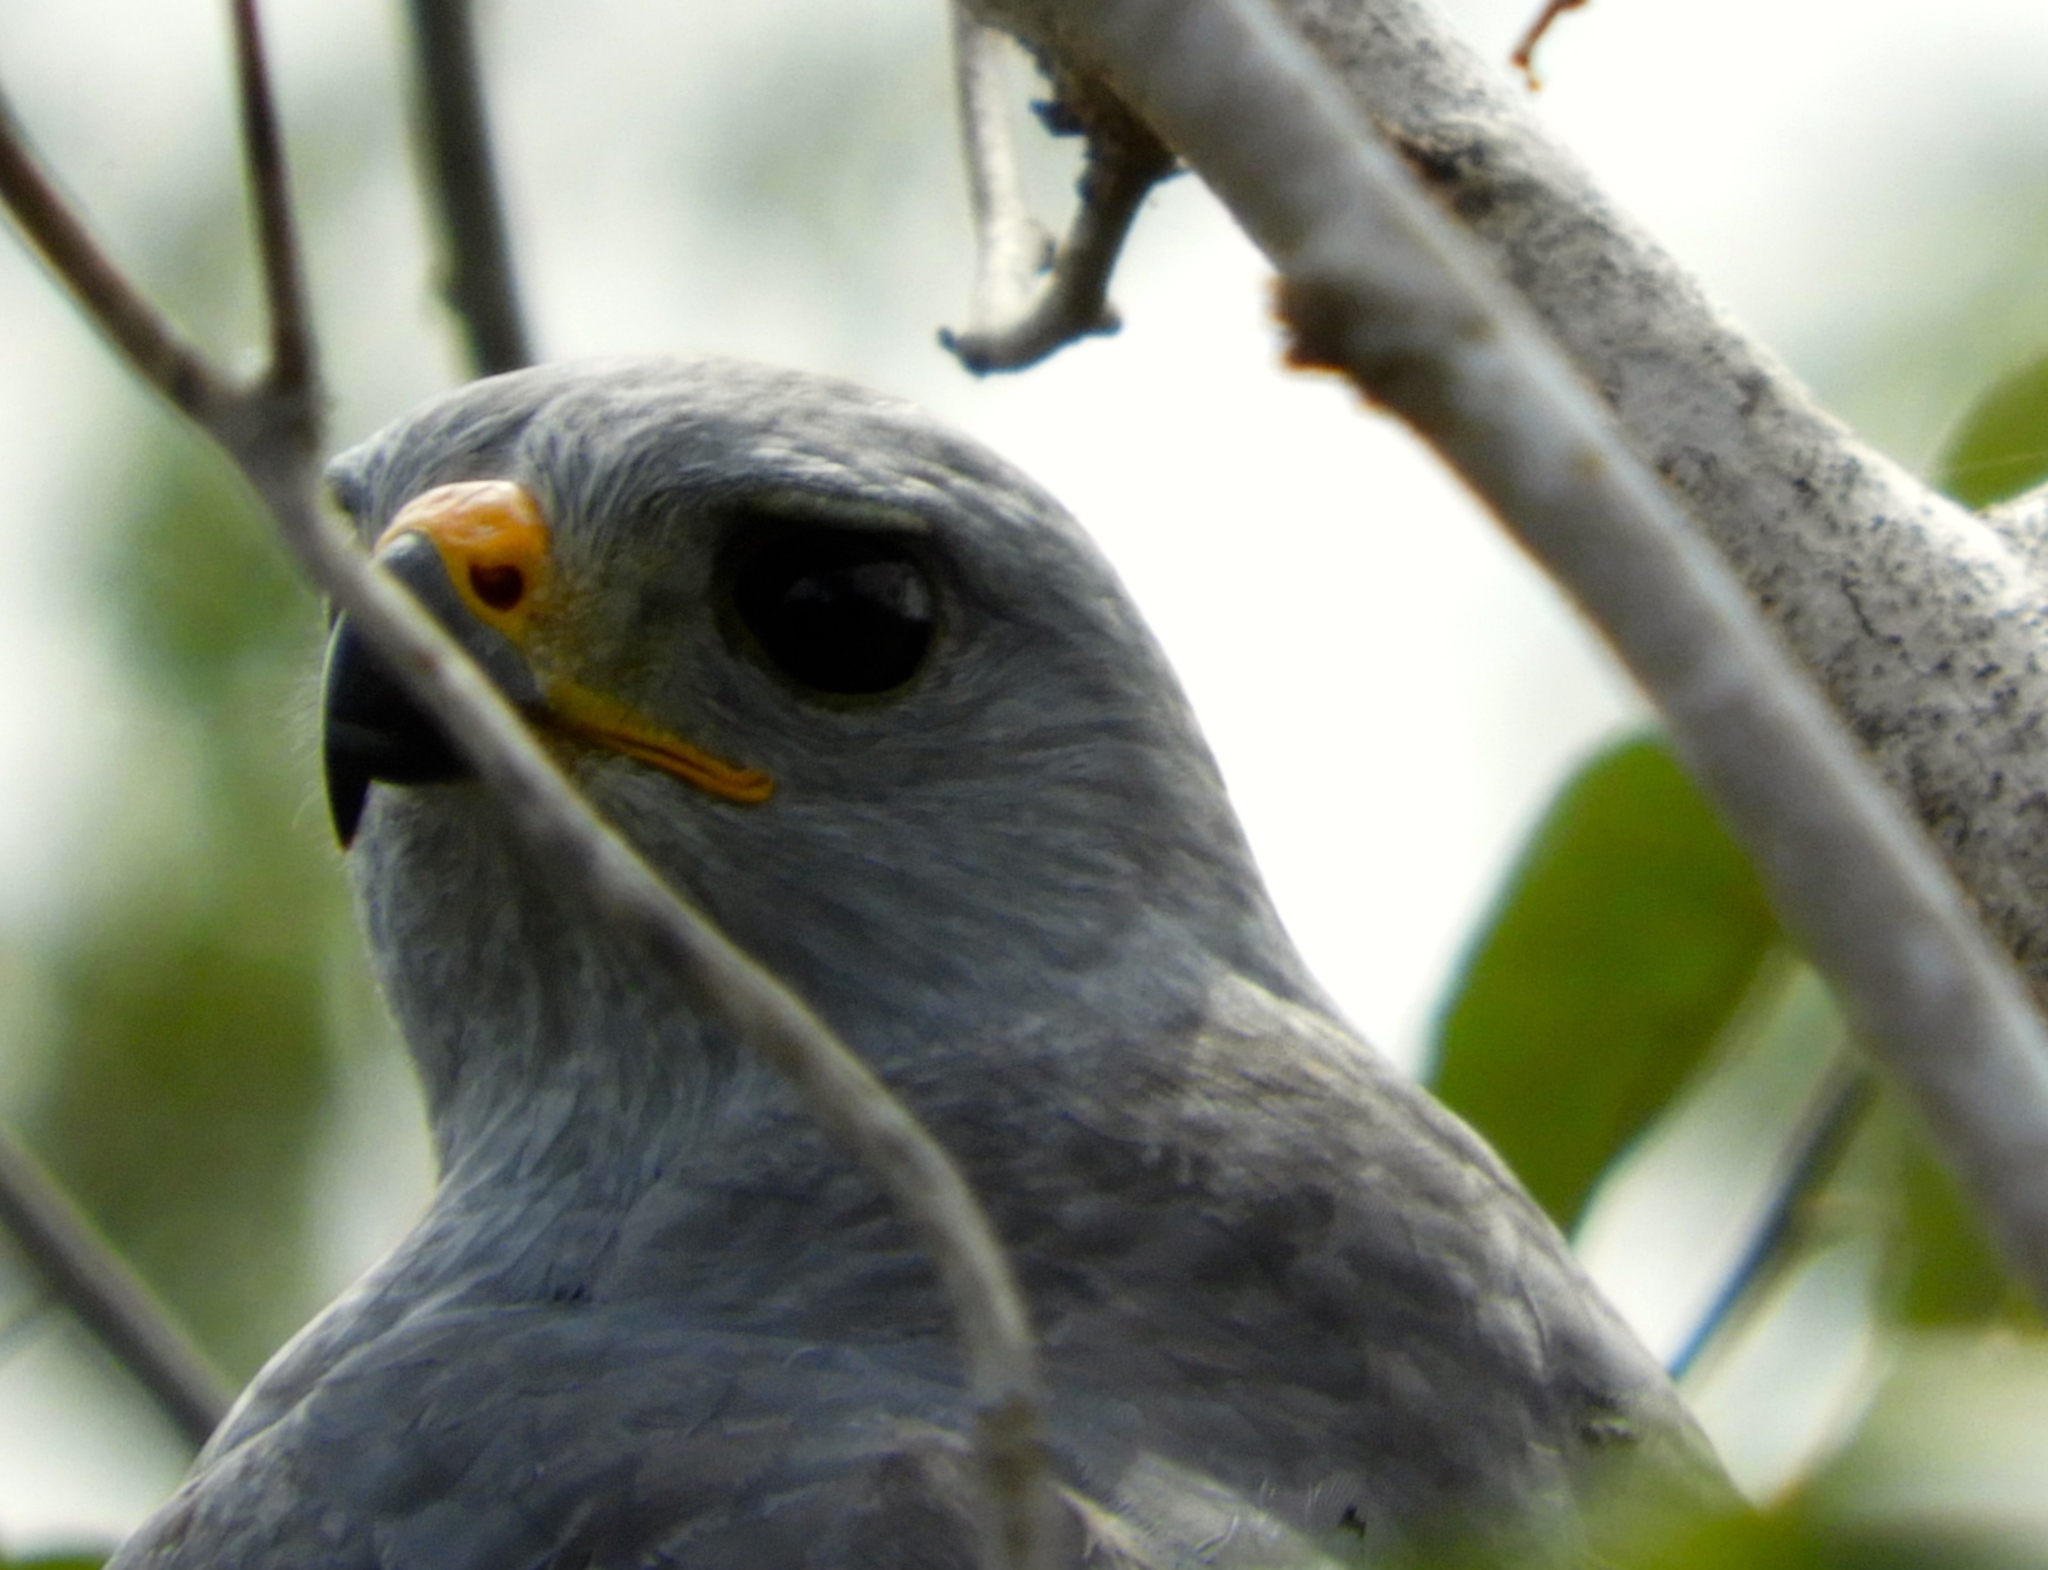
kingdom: Animalia
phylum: Chordata
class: Aves
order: Accipitriformes
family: Accipitridae
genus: Buteo
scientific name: Buteo nitidus
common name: Grey-lined hawk
